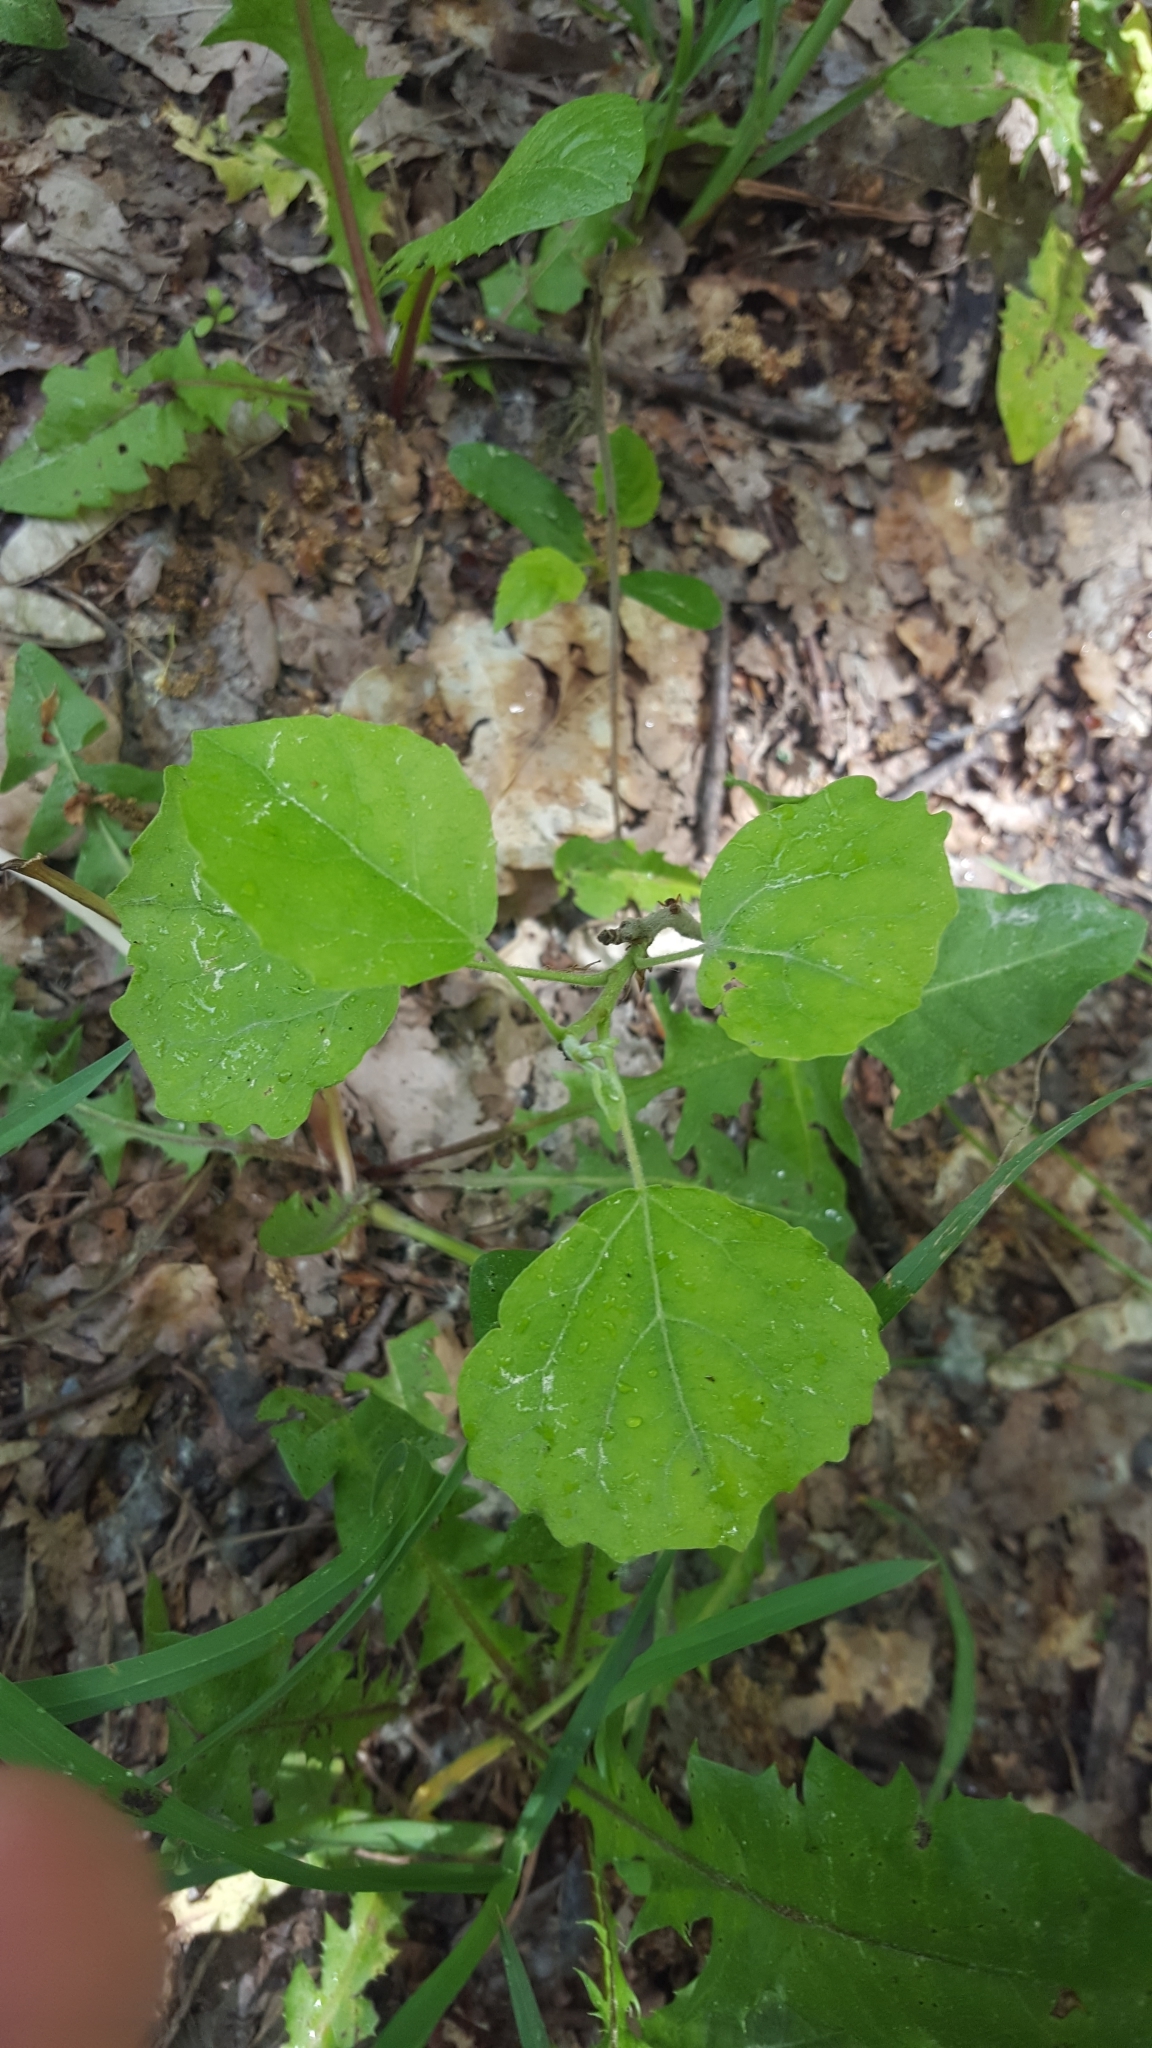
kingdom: Plantae
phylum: Tracheophyta
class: Magnoliopsida
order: Malpighiales
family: Salicaceae
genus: Populus
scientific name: Populus tremula
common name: European aspen
